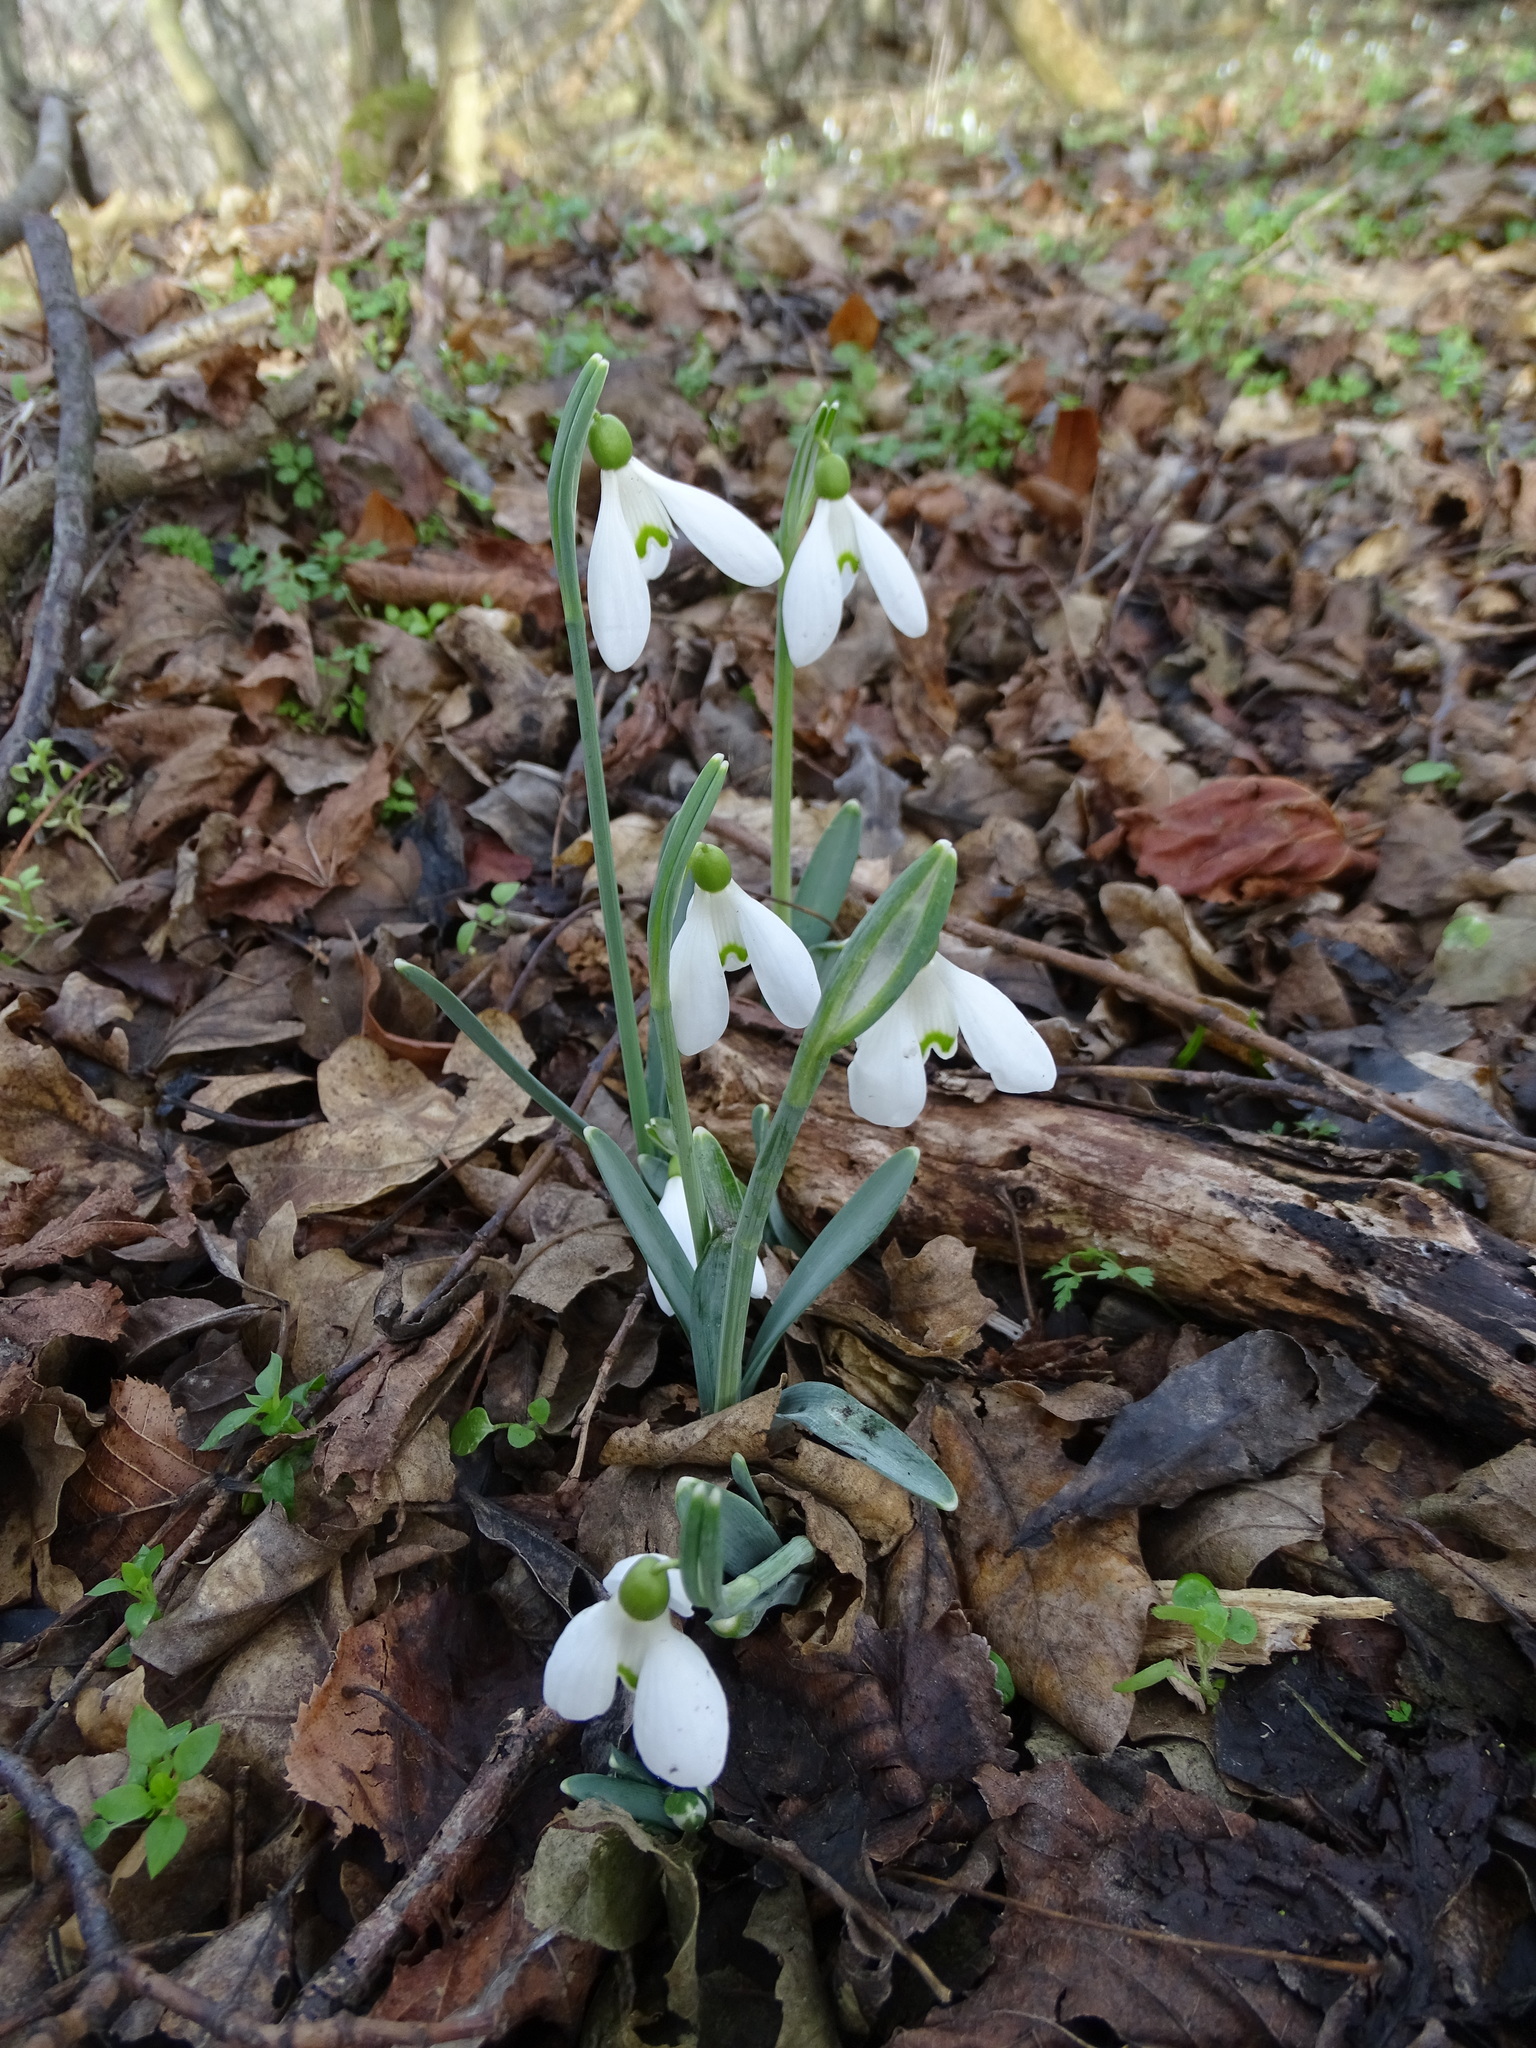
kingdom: Plantae
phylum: Tracheophyta
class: Liliopsida
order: Asparagales
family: Amaryllidaceae
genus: Galanthus
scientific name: Galanthus nivalis
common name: Snowdrop
